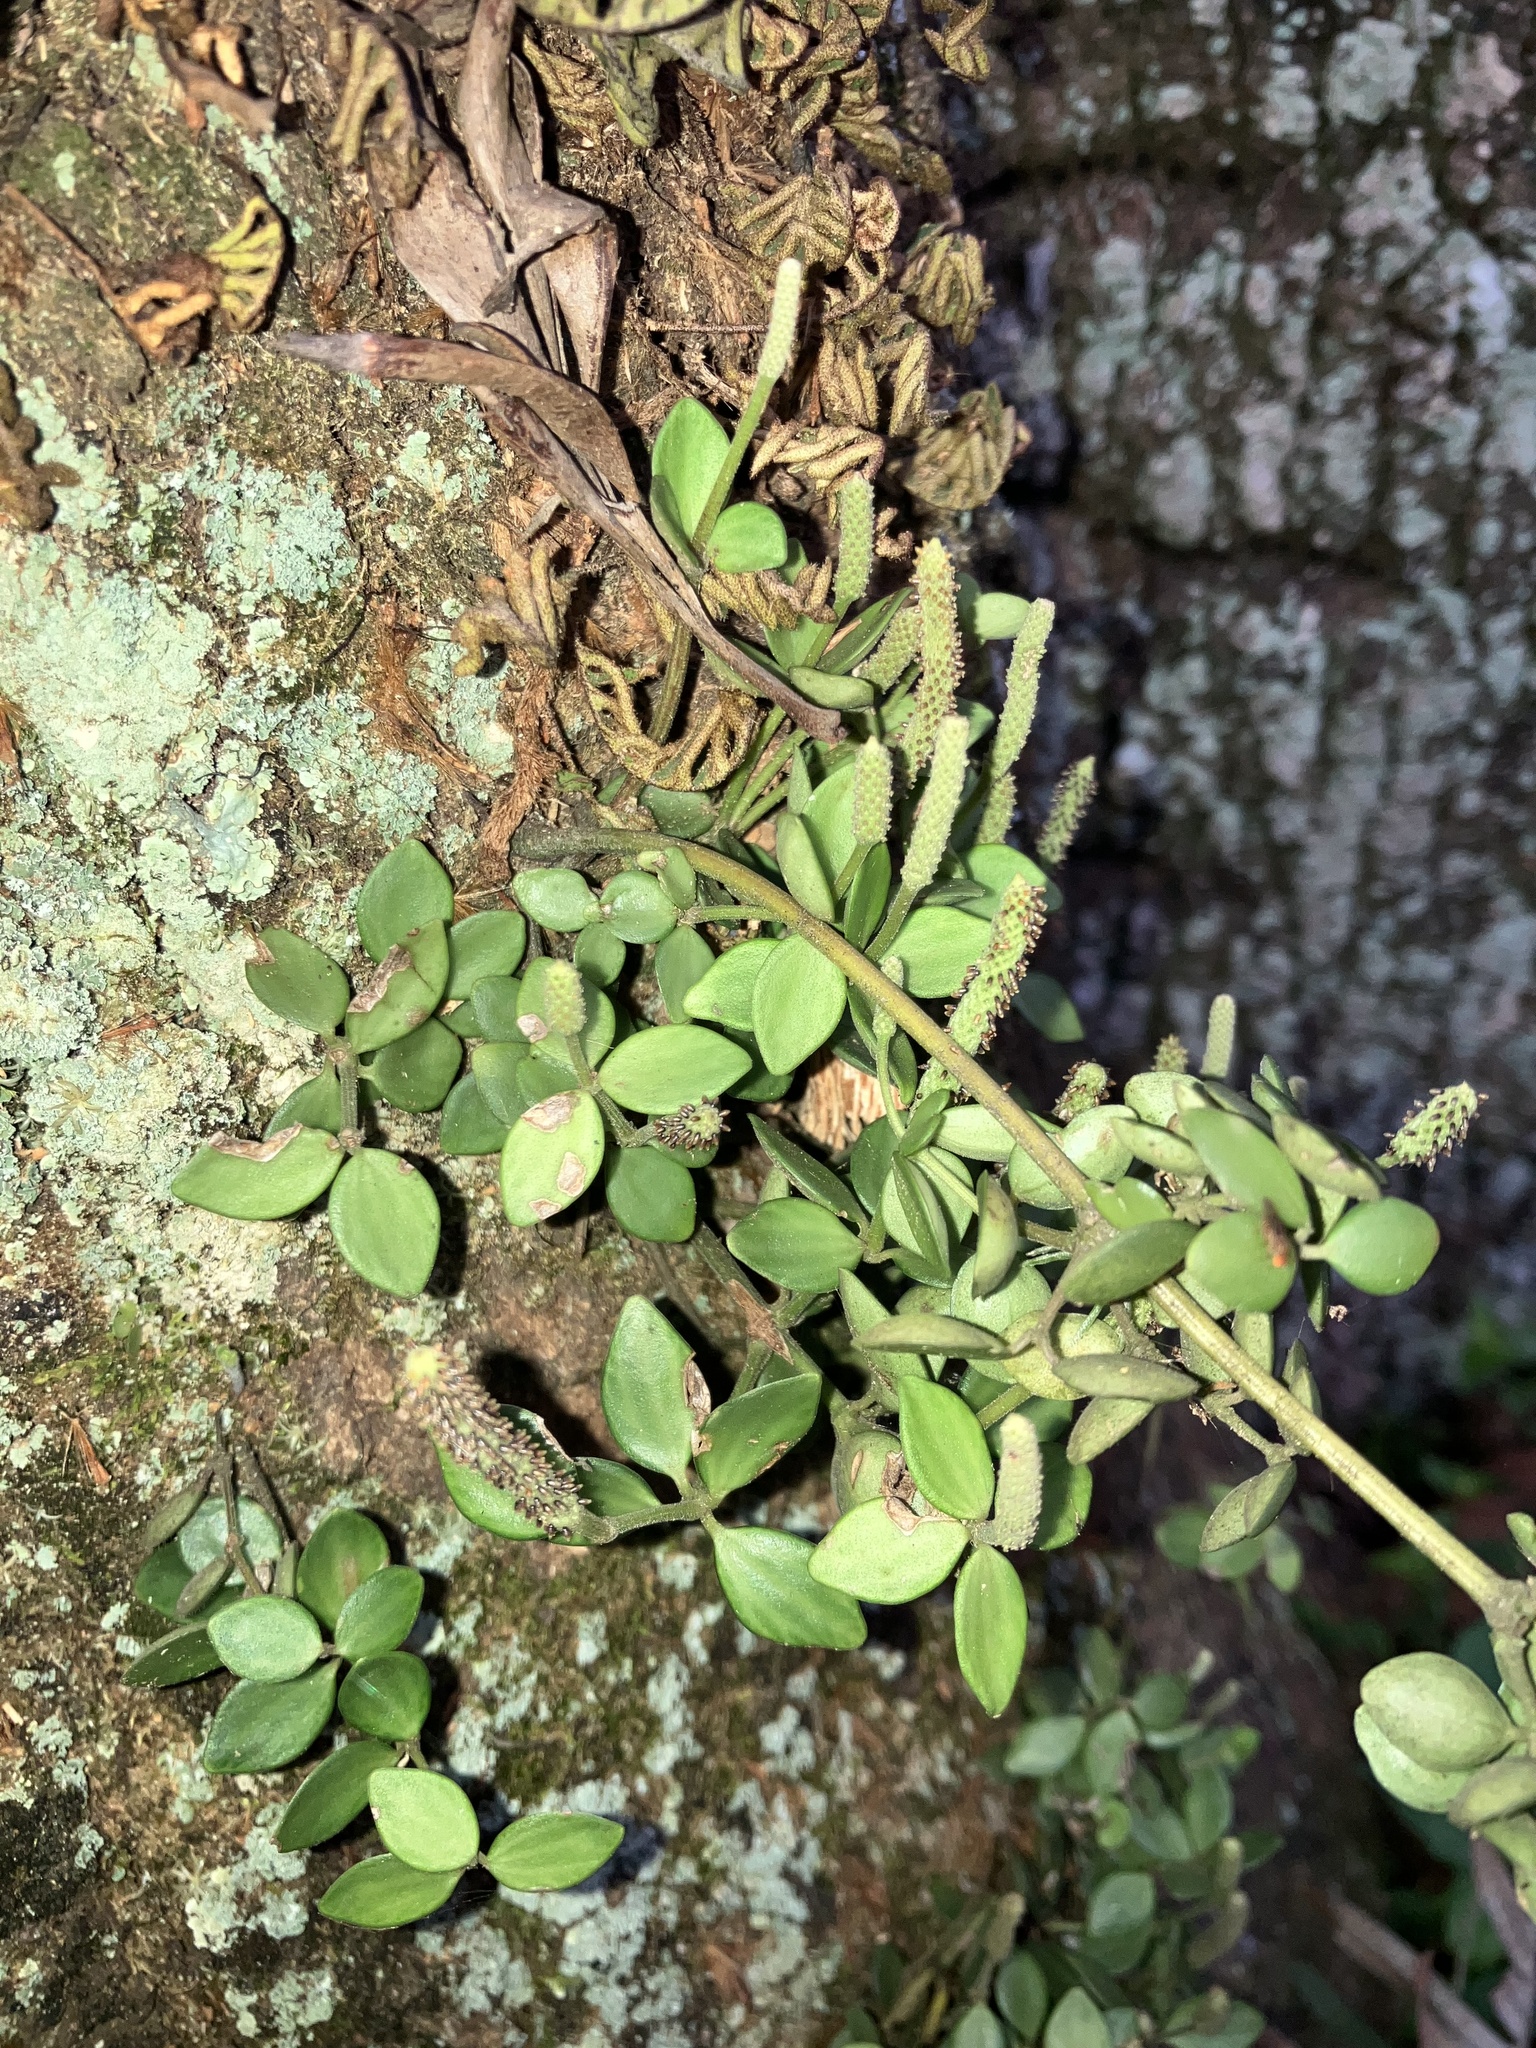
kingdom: Plantae
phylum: Tracheophyta
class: Magnoliopsida
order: Piperales
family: Piperaceae
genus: Peperomia
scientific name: Peperomia tetraphylla
